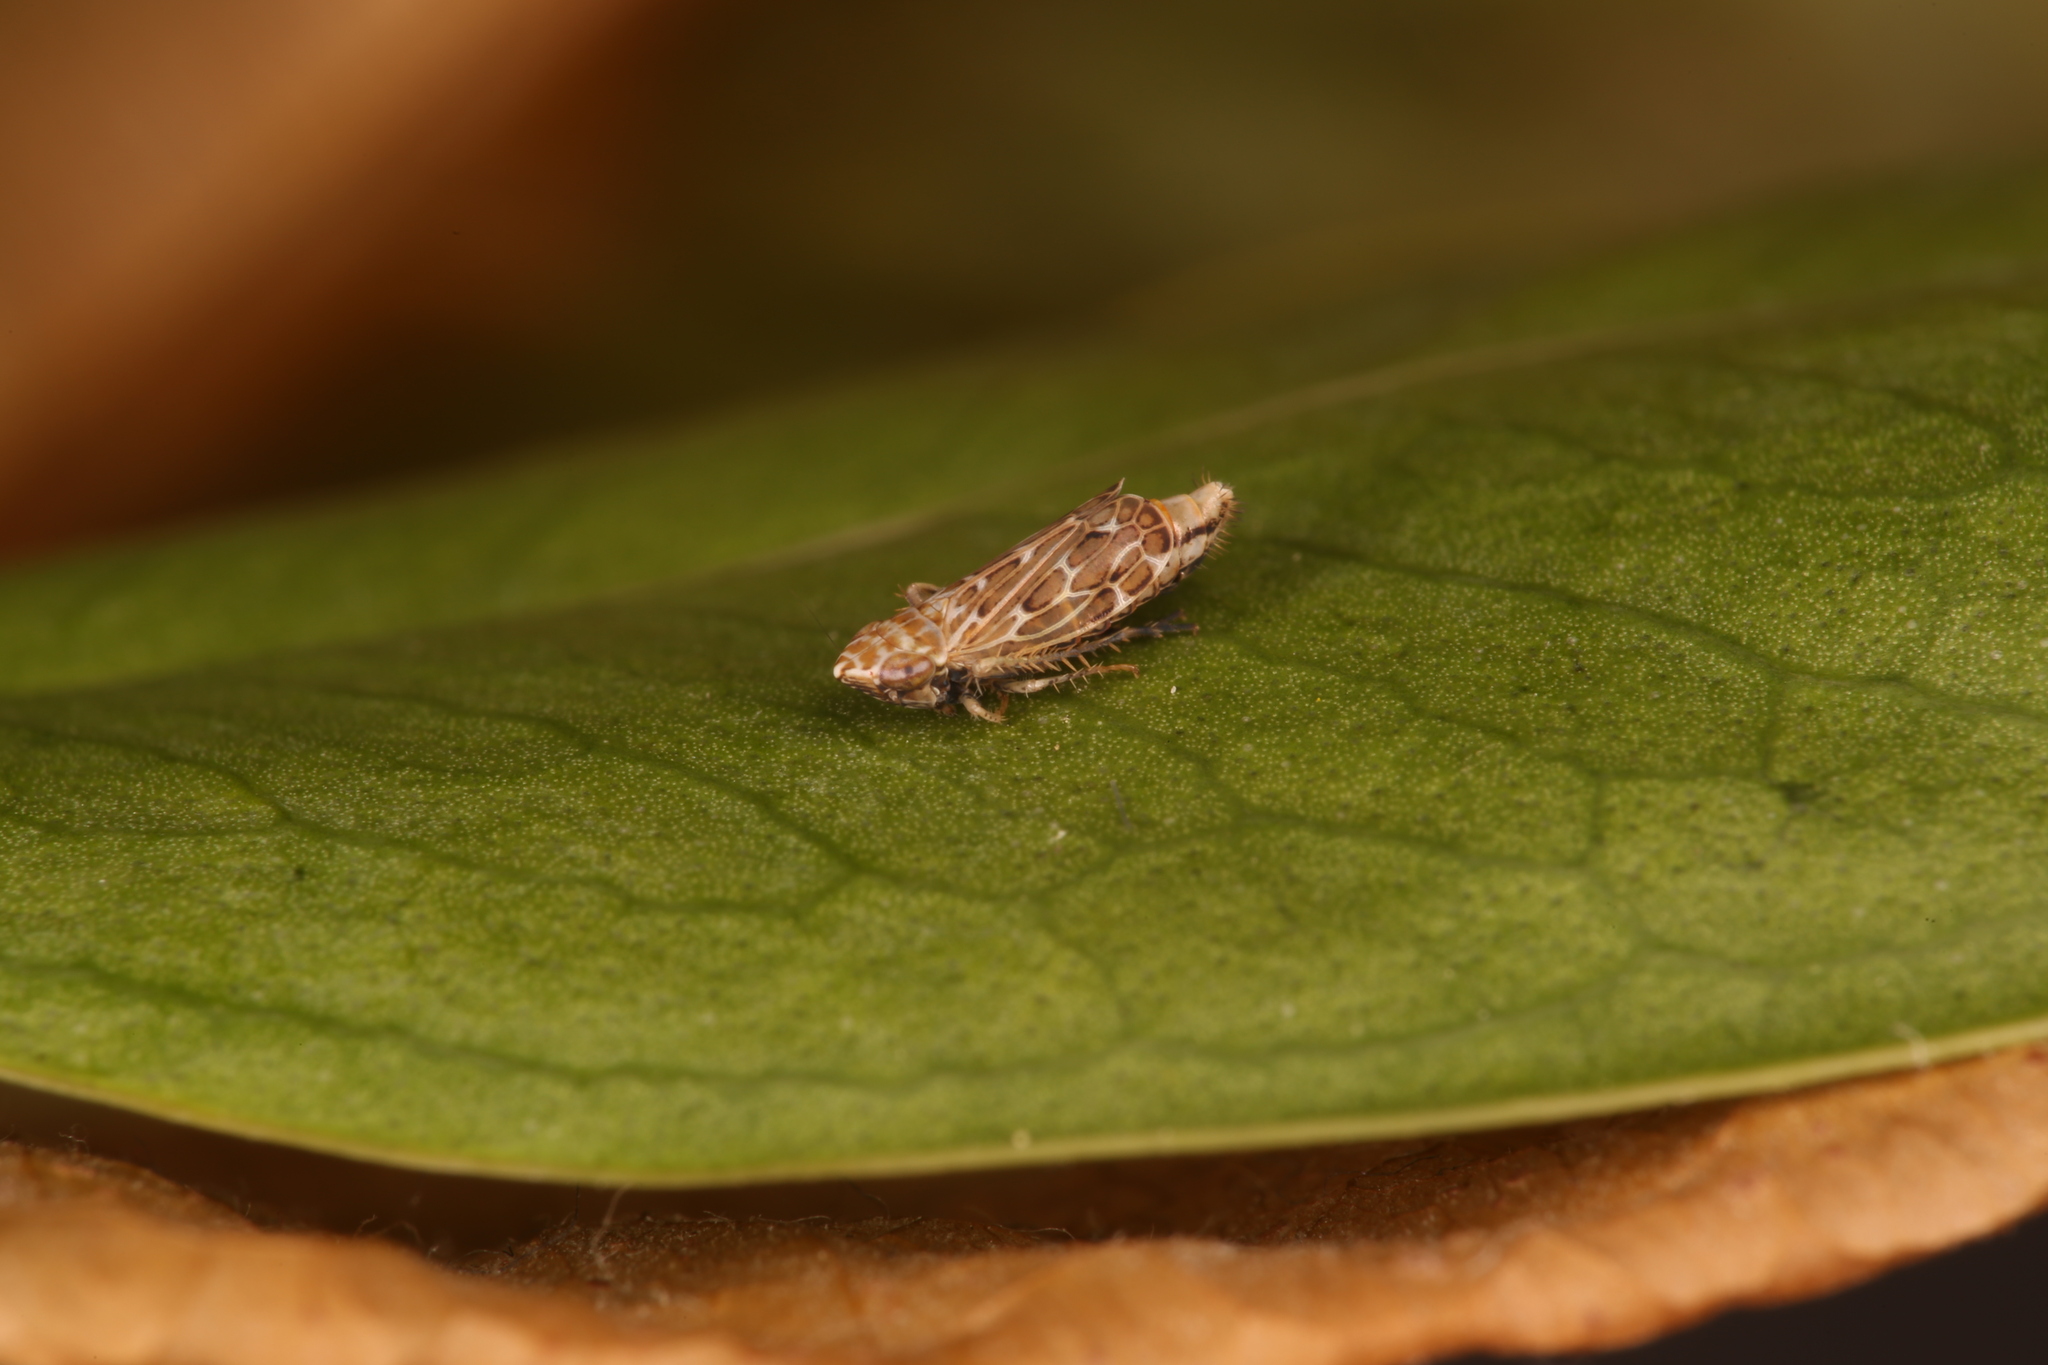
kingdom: Animalia
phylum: Arthropoda
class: Insecta
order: Hemiptera
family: Cicadellidae
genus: Jassargus
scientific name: Jassargus
